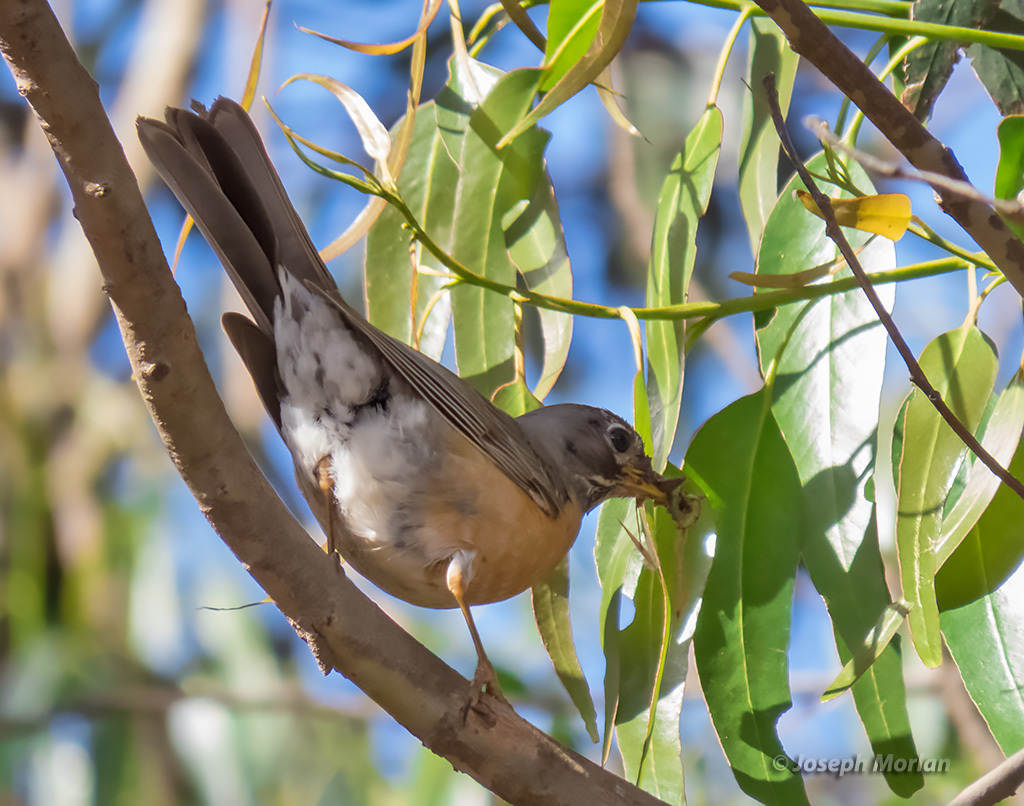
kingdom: Animalia
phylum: Chordata
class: Aves
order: Passeriformes
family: Turdidae
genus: Turdus
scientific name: Turdus migratorius
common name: American robin
